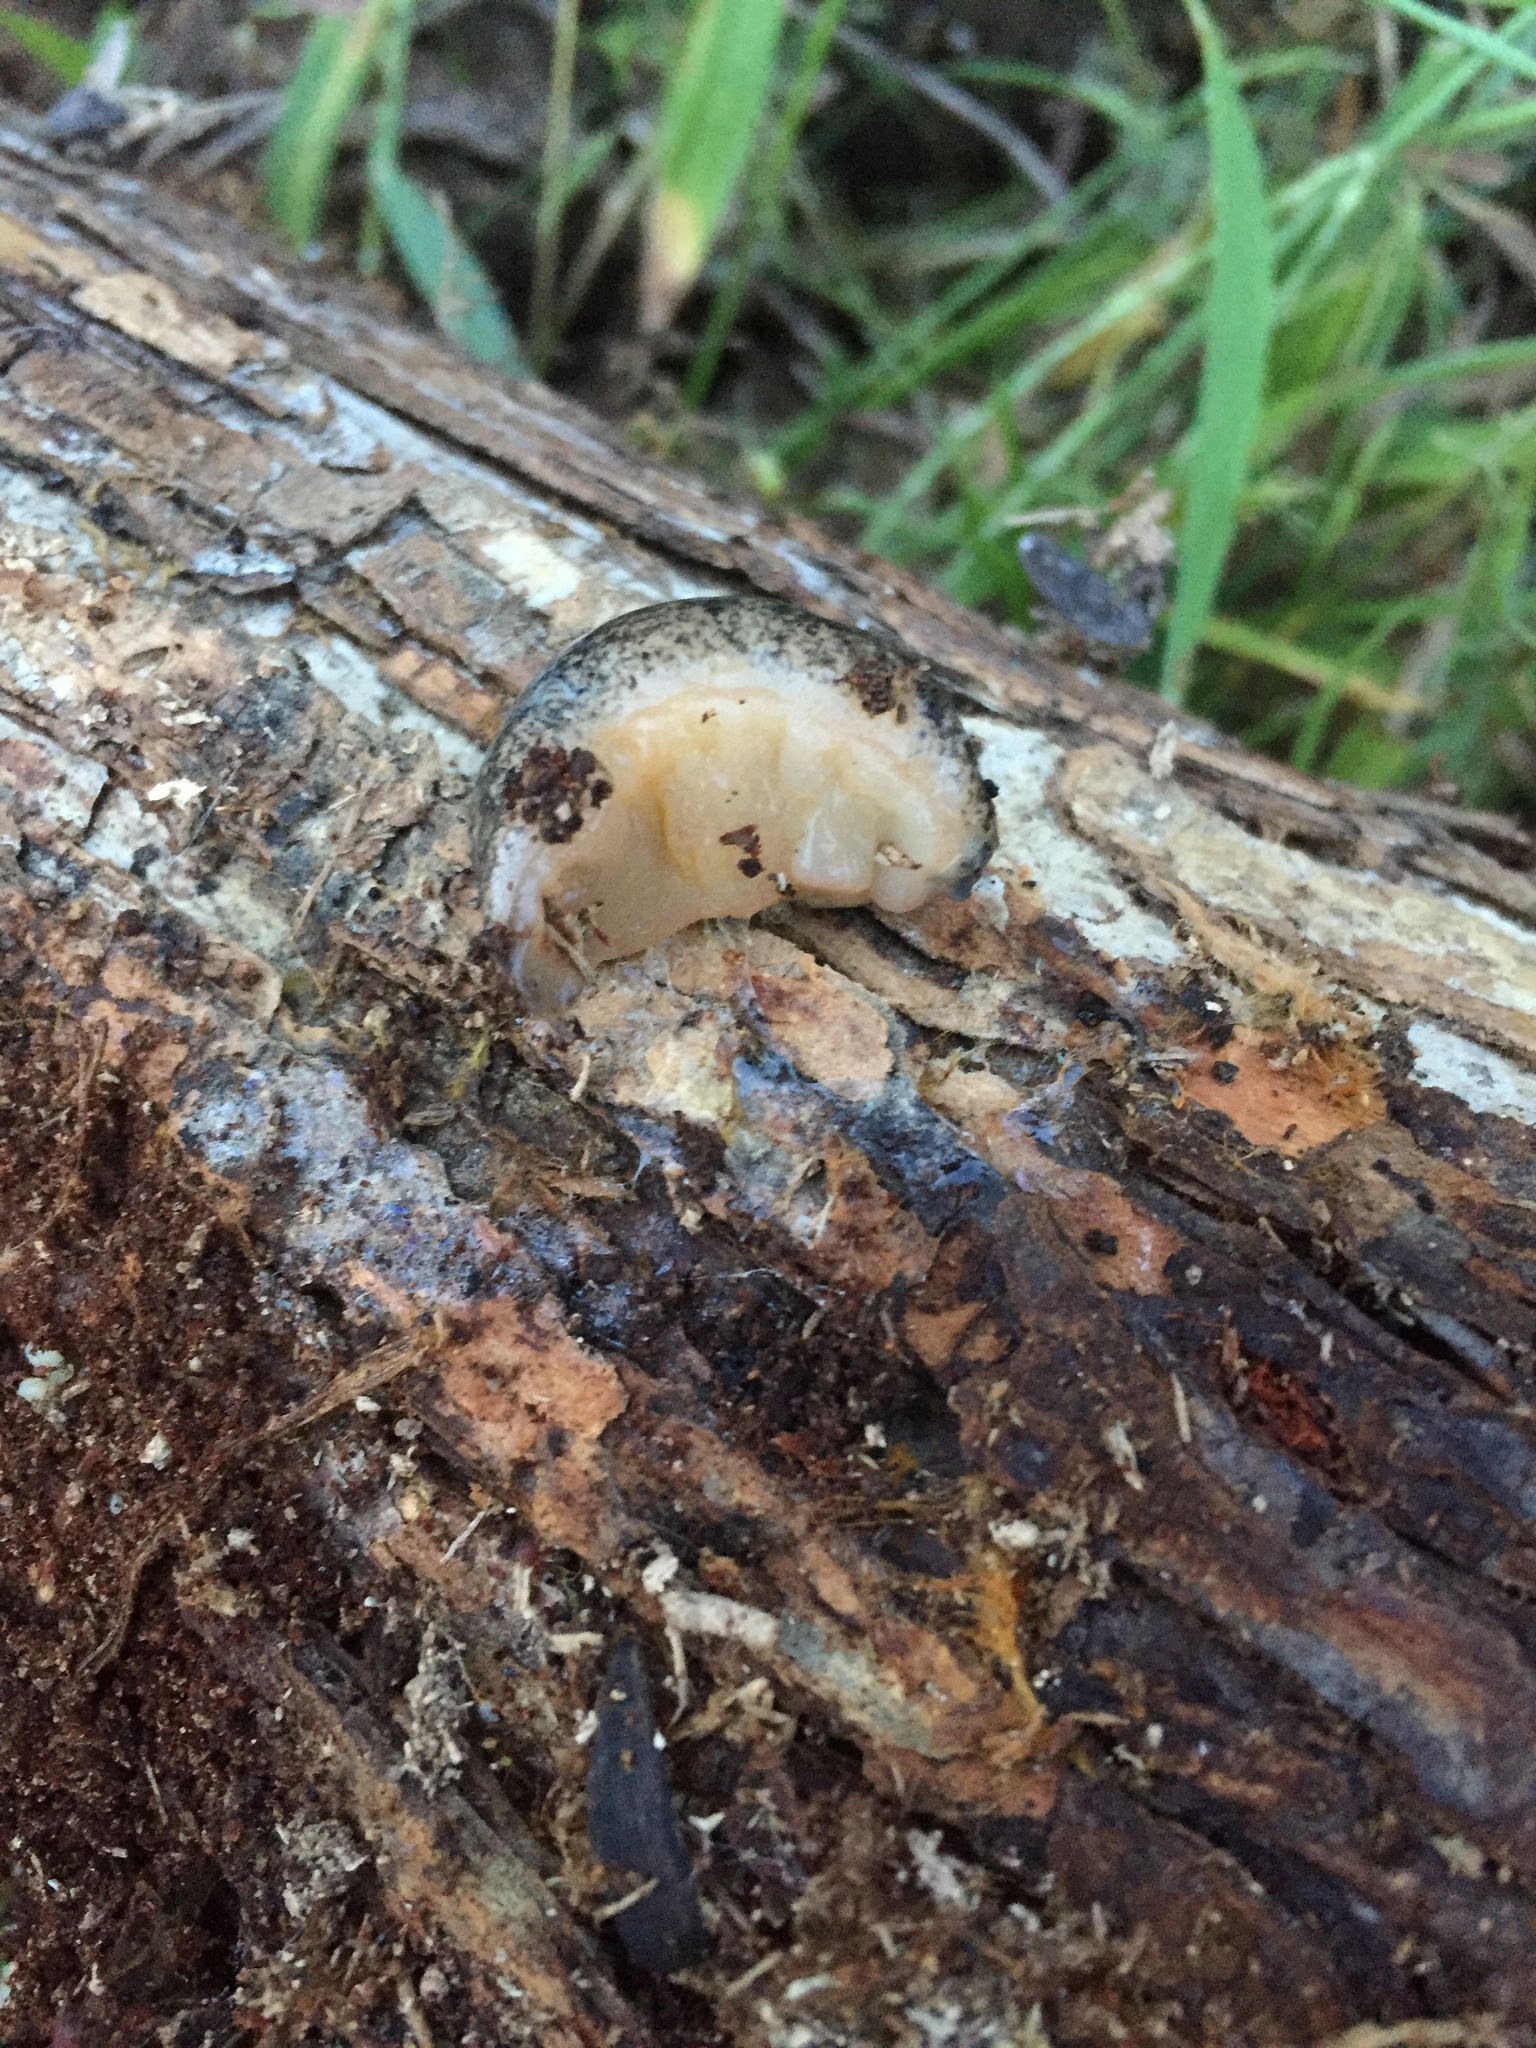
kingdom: Animalia
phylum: Mollusca
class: Gastropoda
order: Stylommatophora
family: Philomycidae
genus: Philomycus
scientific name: Philomycus carolinianus
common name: Carolina mantleslug
